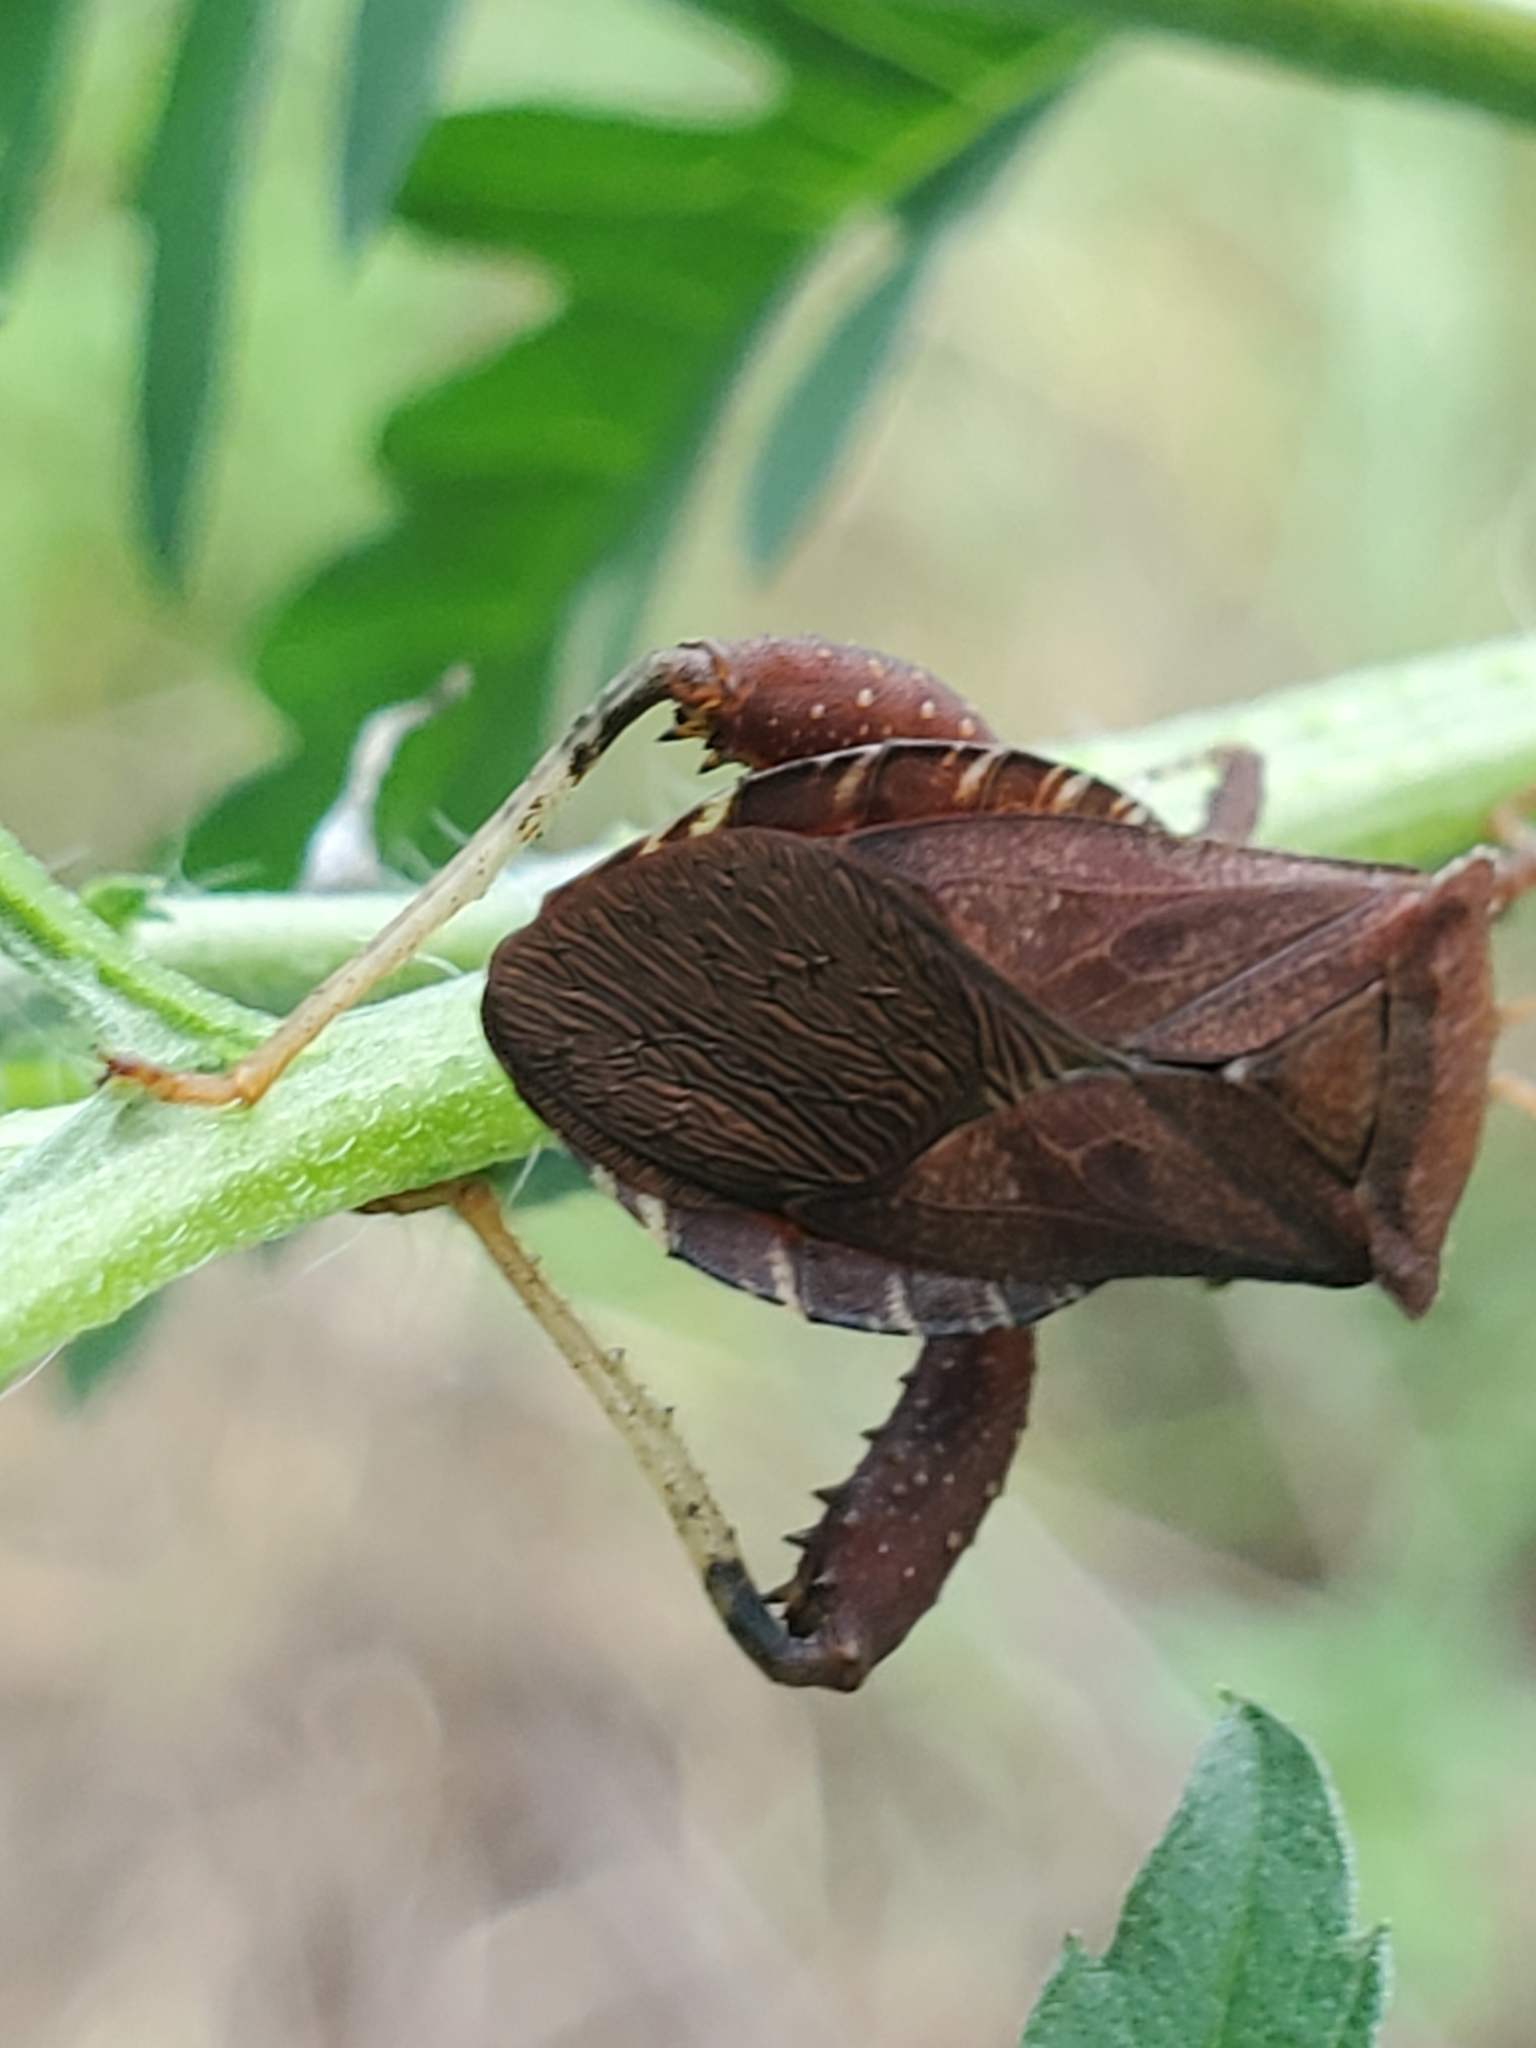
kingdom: Animalia
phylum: Arthropoda
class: Insecta
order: Hemiptera
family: Coreidae
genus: Euthochtha
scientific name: Euthochtha galeator
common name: Helmeted squash bug
